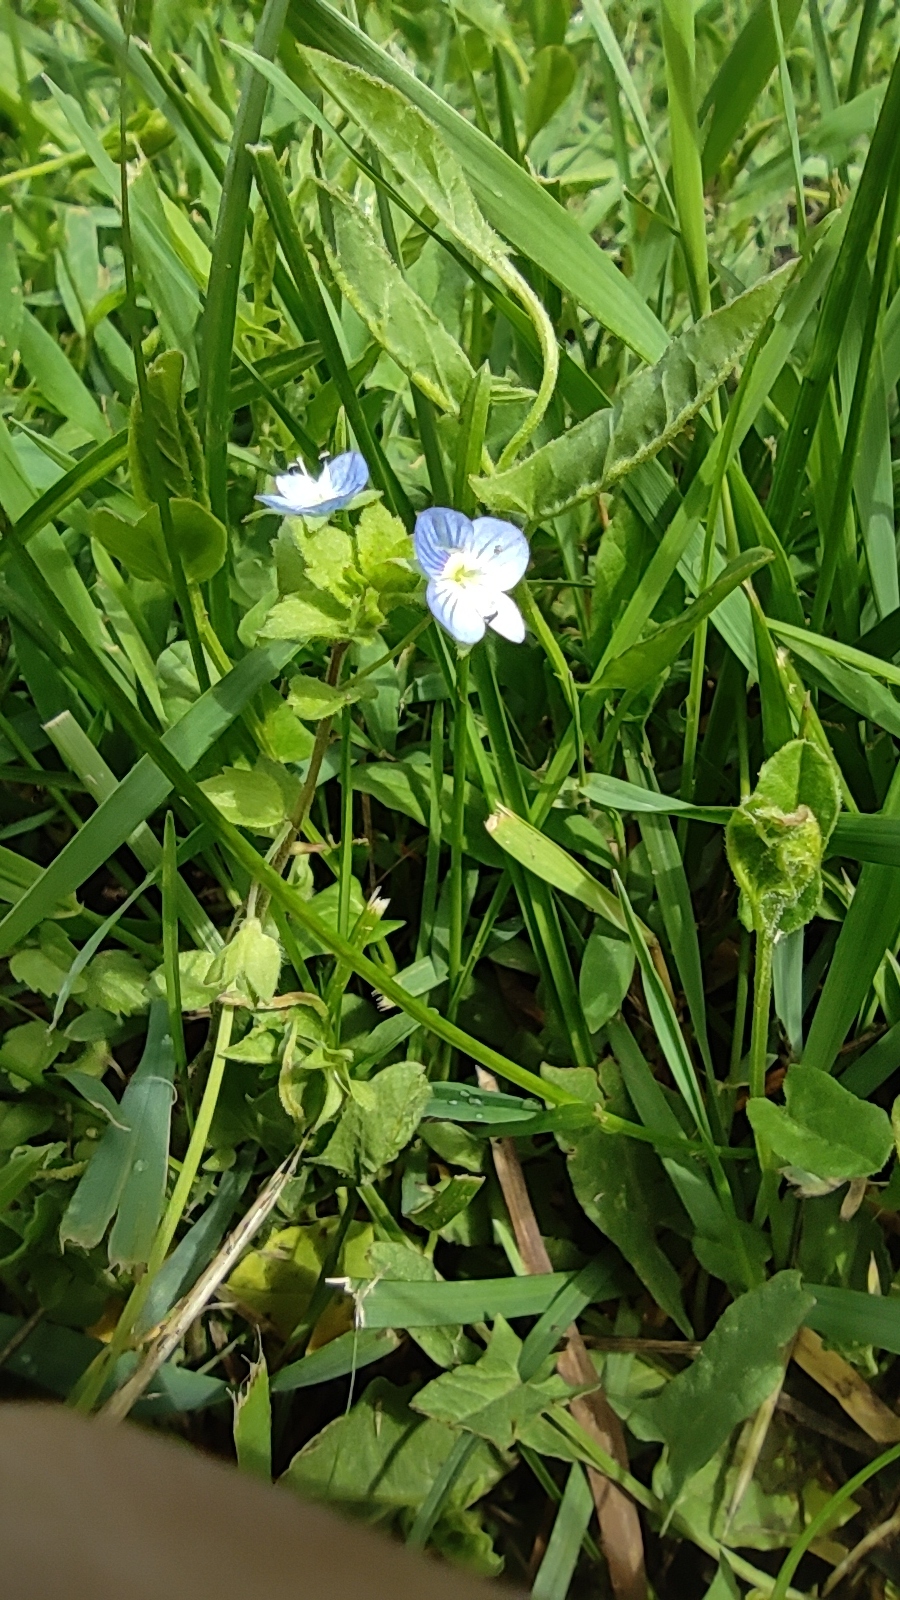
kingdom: Plantae
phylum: Tracheophyta
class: Magnoliopsida
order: Lamiales
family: Plantaginaceae
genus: Veronica
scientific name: Veronica persica
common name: Common field-speedwell
